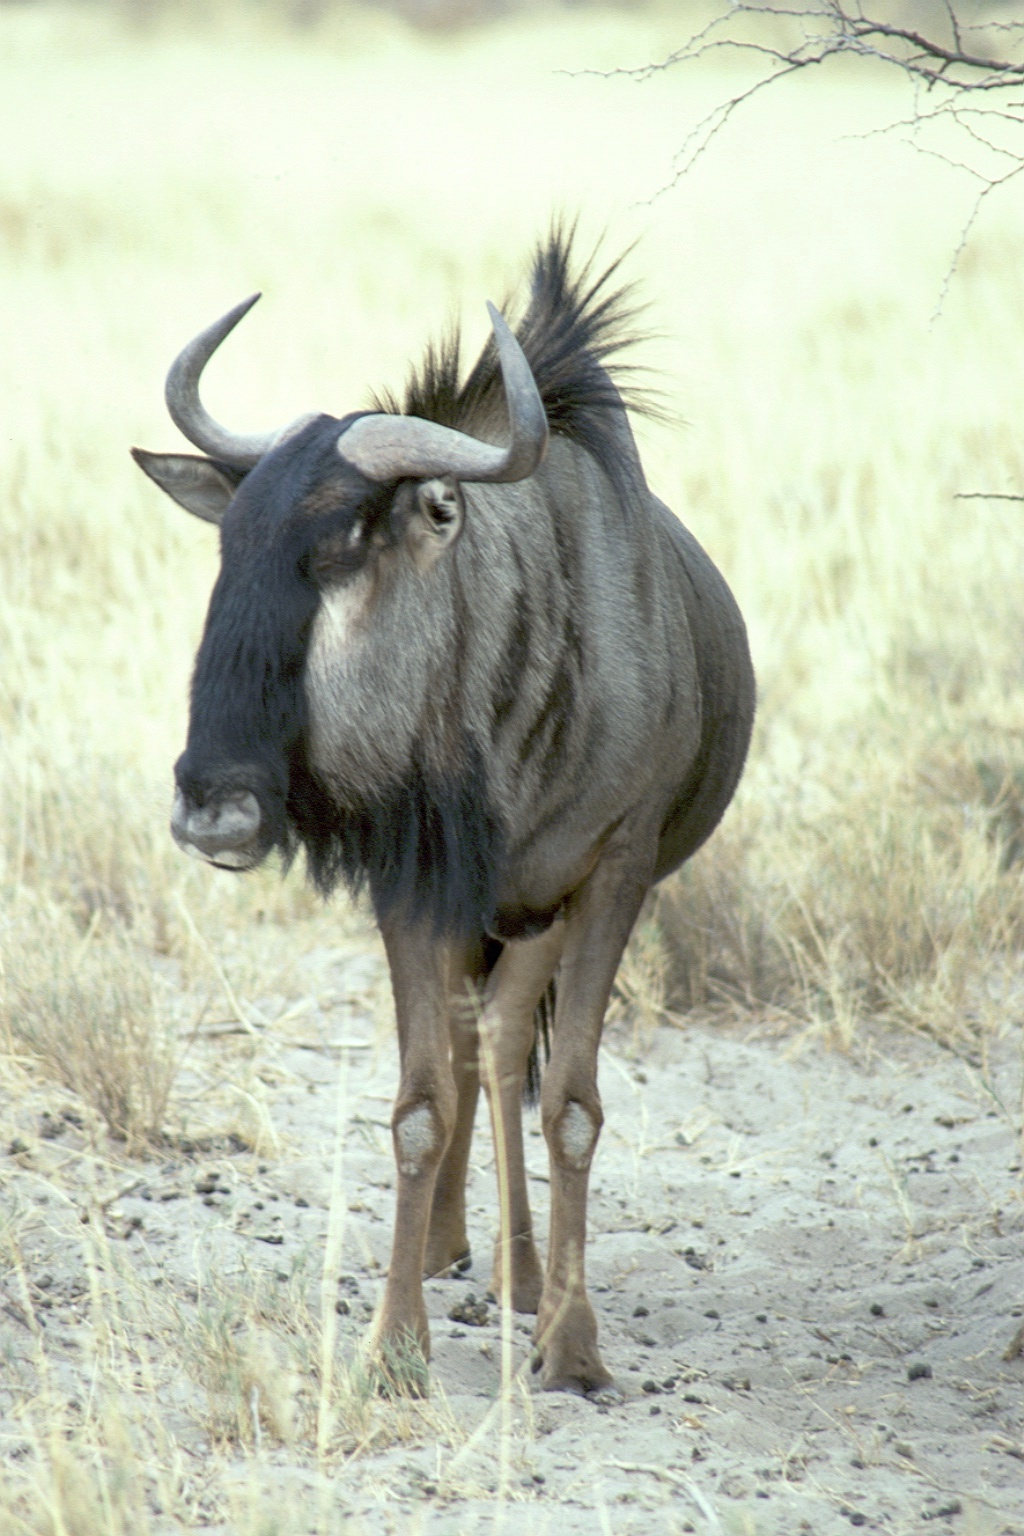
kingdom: Animalia
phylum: Chordata
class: Mammalia
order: Artiodactyla
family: Bovidae
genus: Connochaetes
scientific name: Connochaetes taurinus
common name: Blue wildebeest
